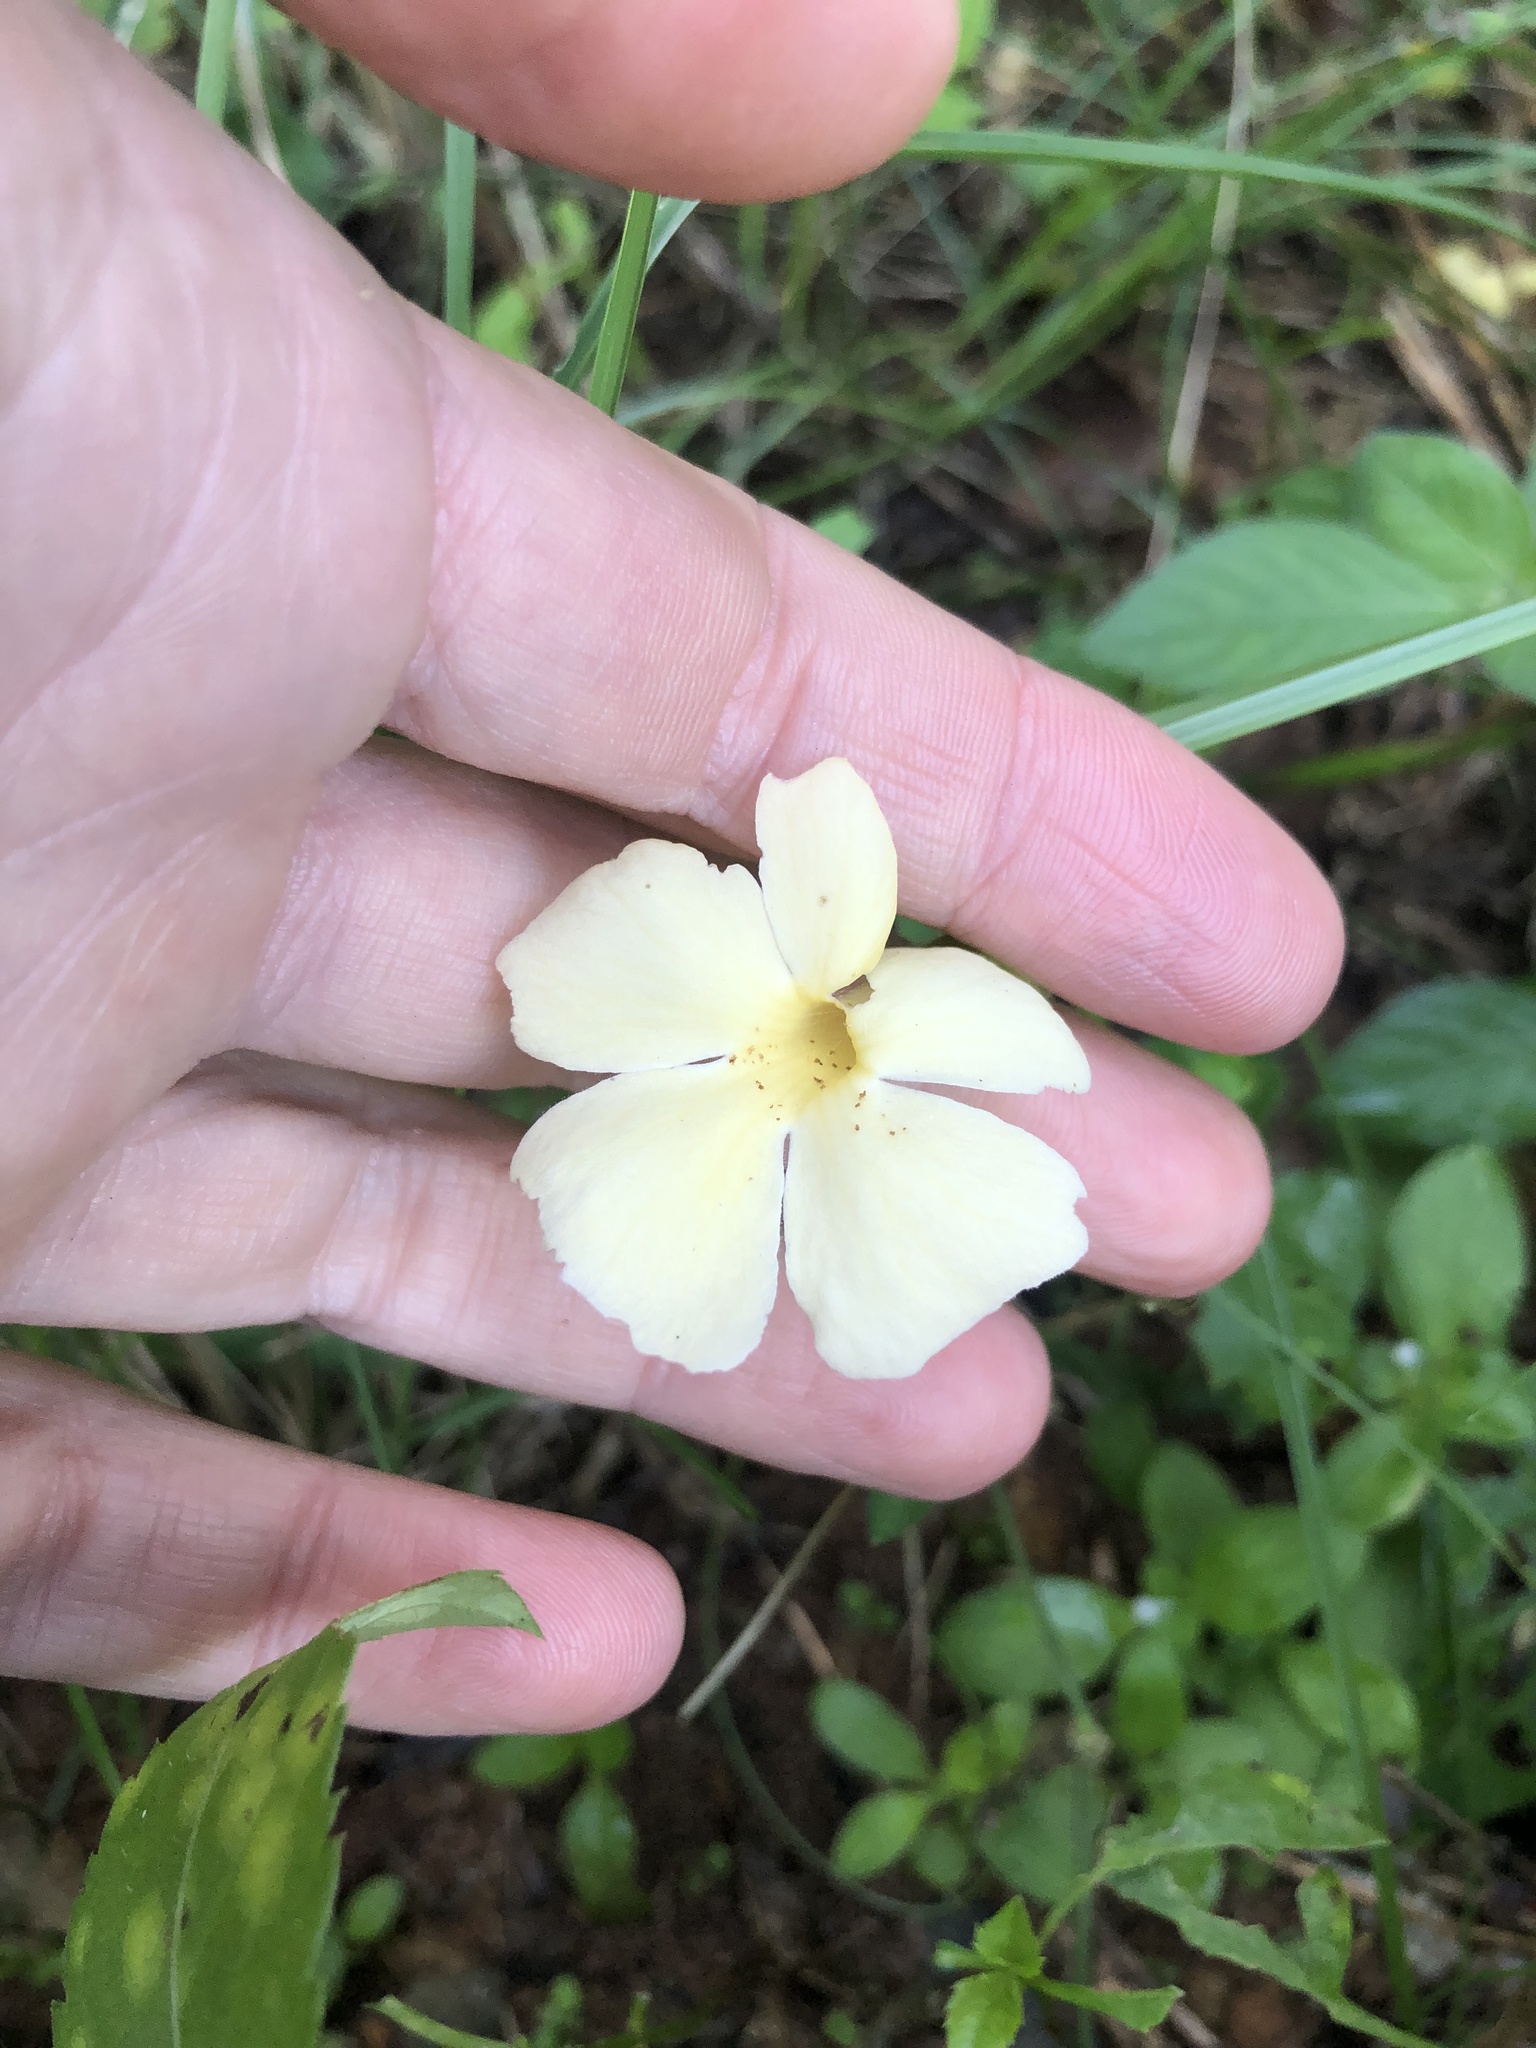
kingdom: Plantae
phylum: Tracheophyta
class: Magnoliopsida
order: Lamiales
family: Acanthaceae
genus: Thunbergia
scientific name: Thunbergia dregeana
